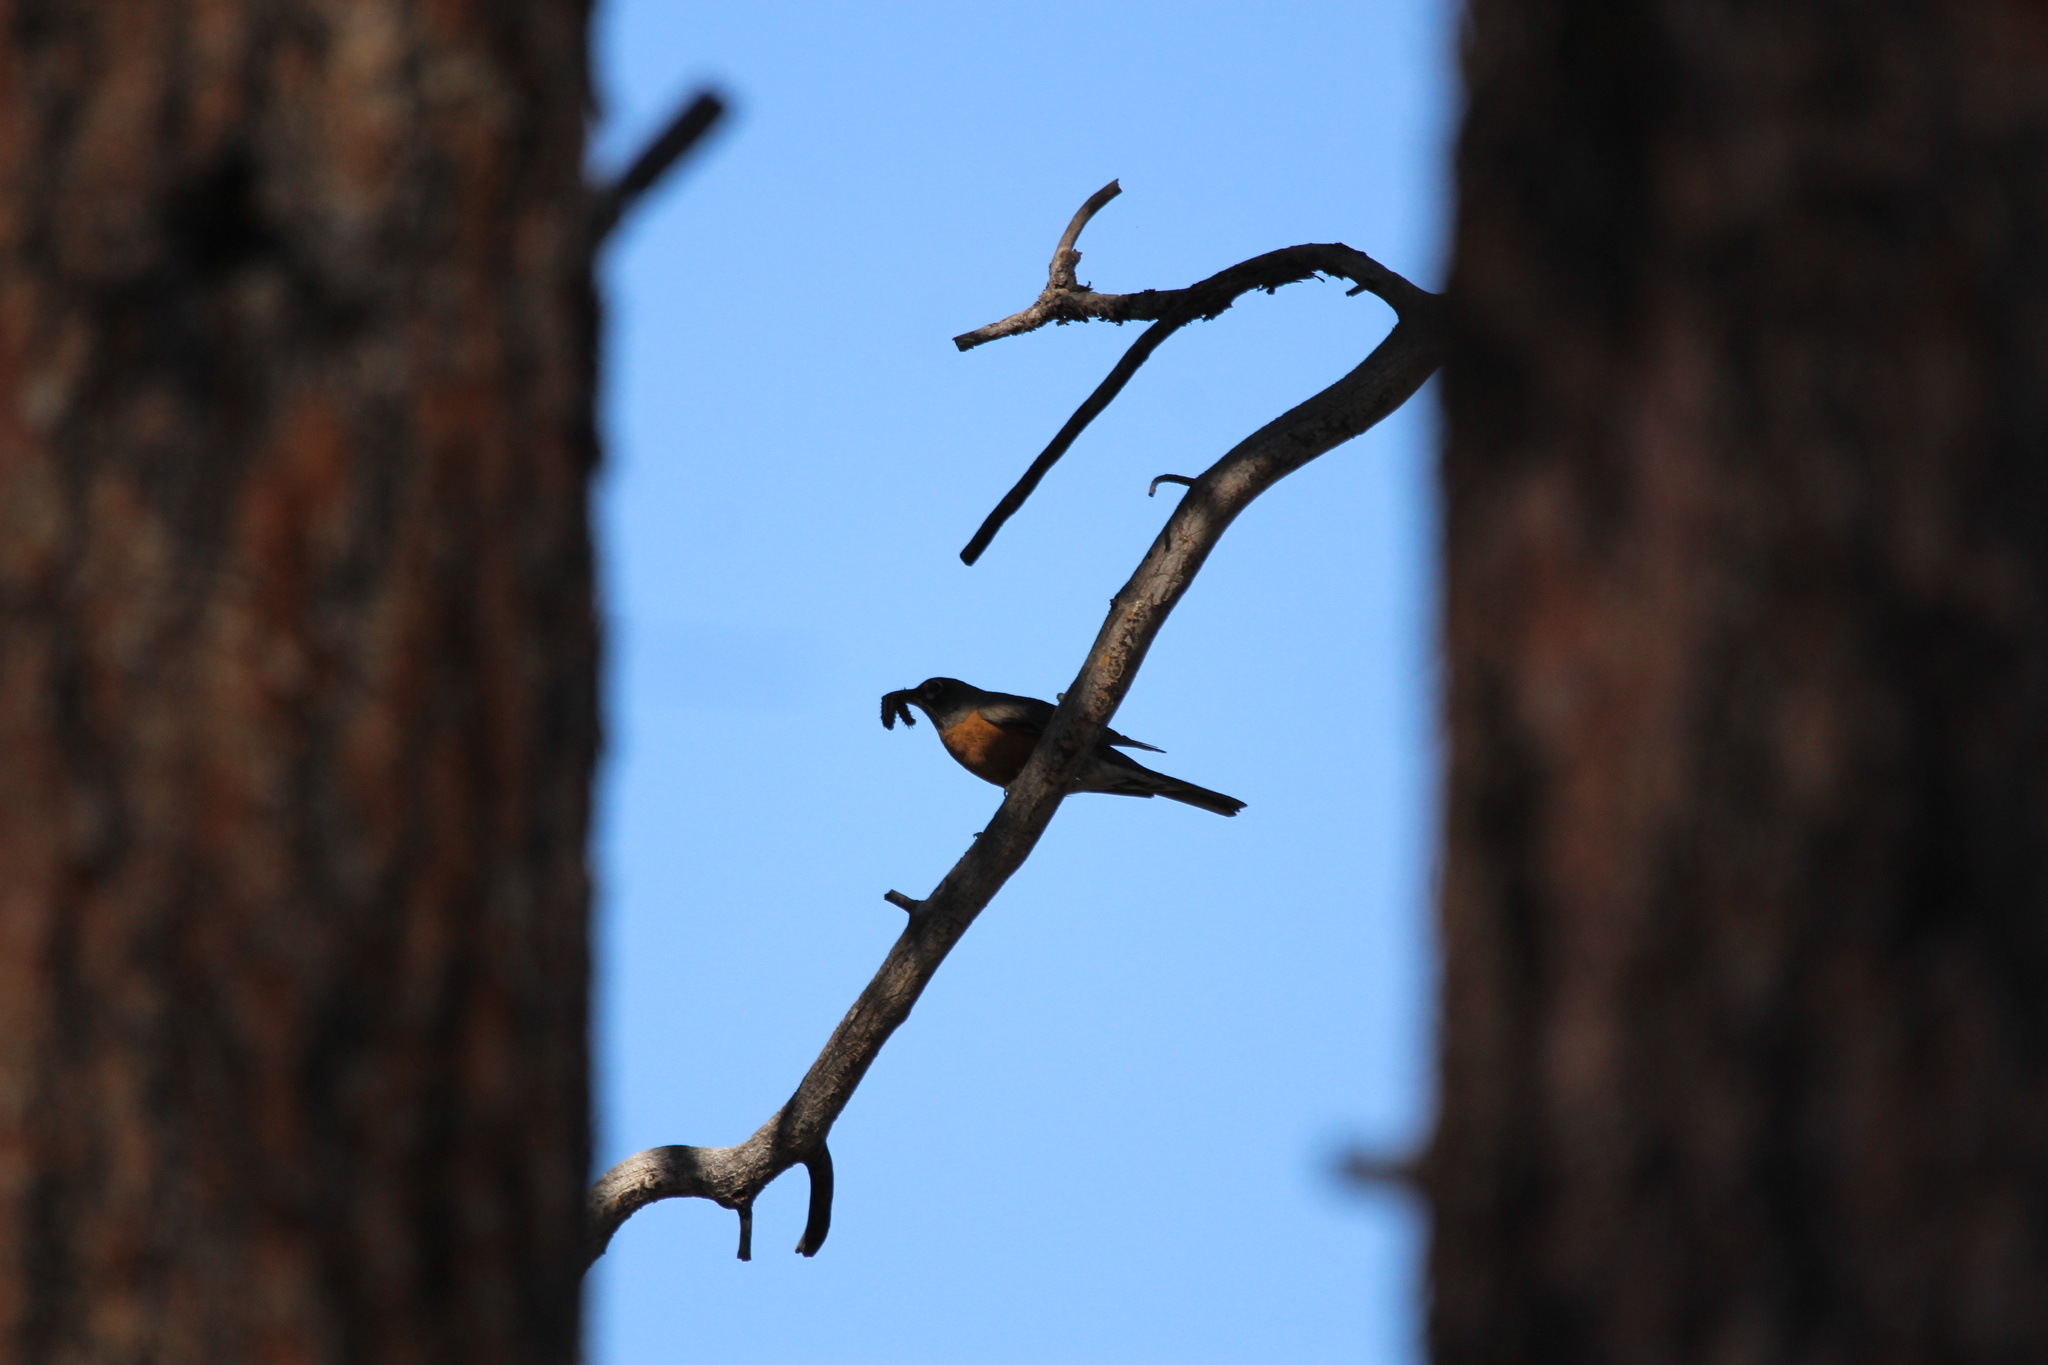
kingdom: Animalia
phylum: Chordata
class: Aves
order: Passeriformes
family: Turdidae
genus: Turdus
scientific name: Turdus migratorius
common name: American robin
